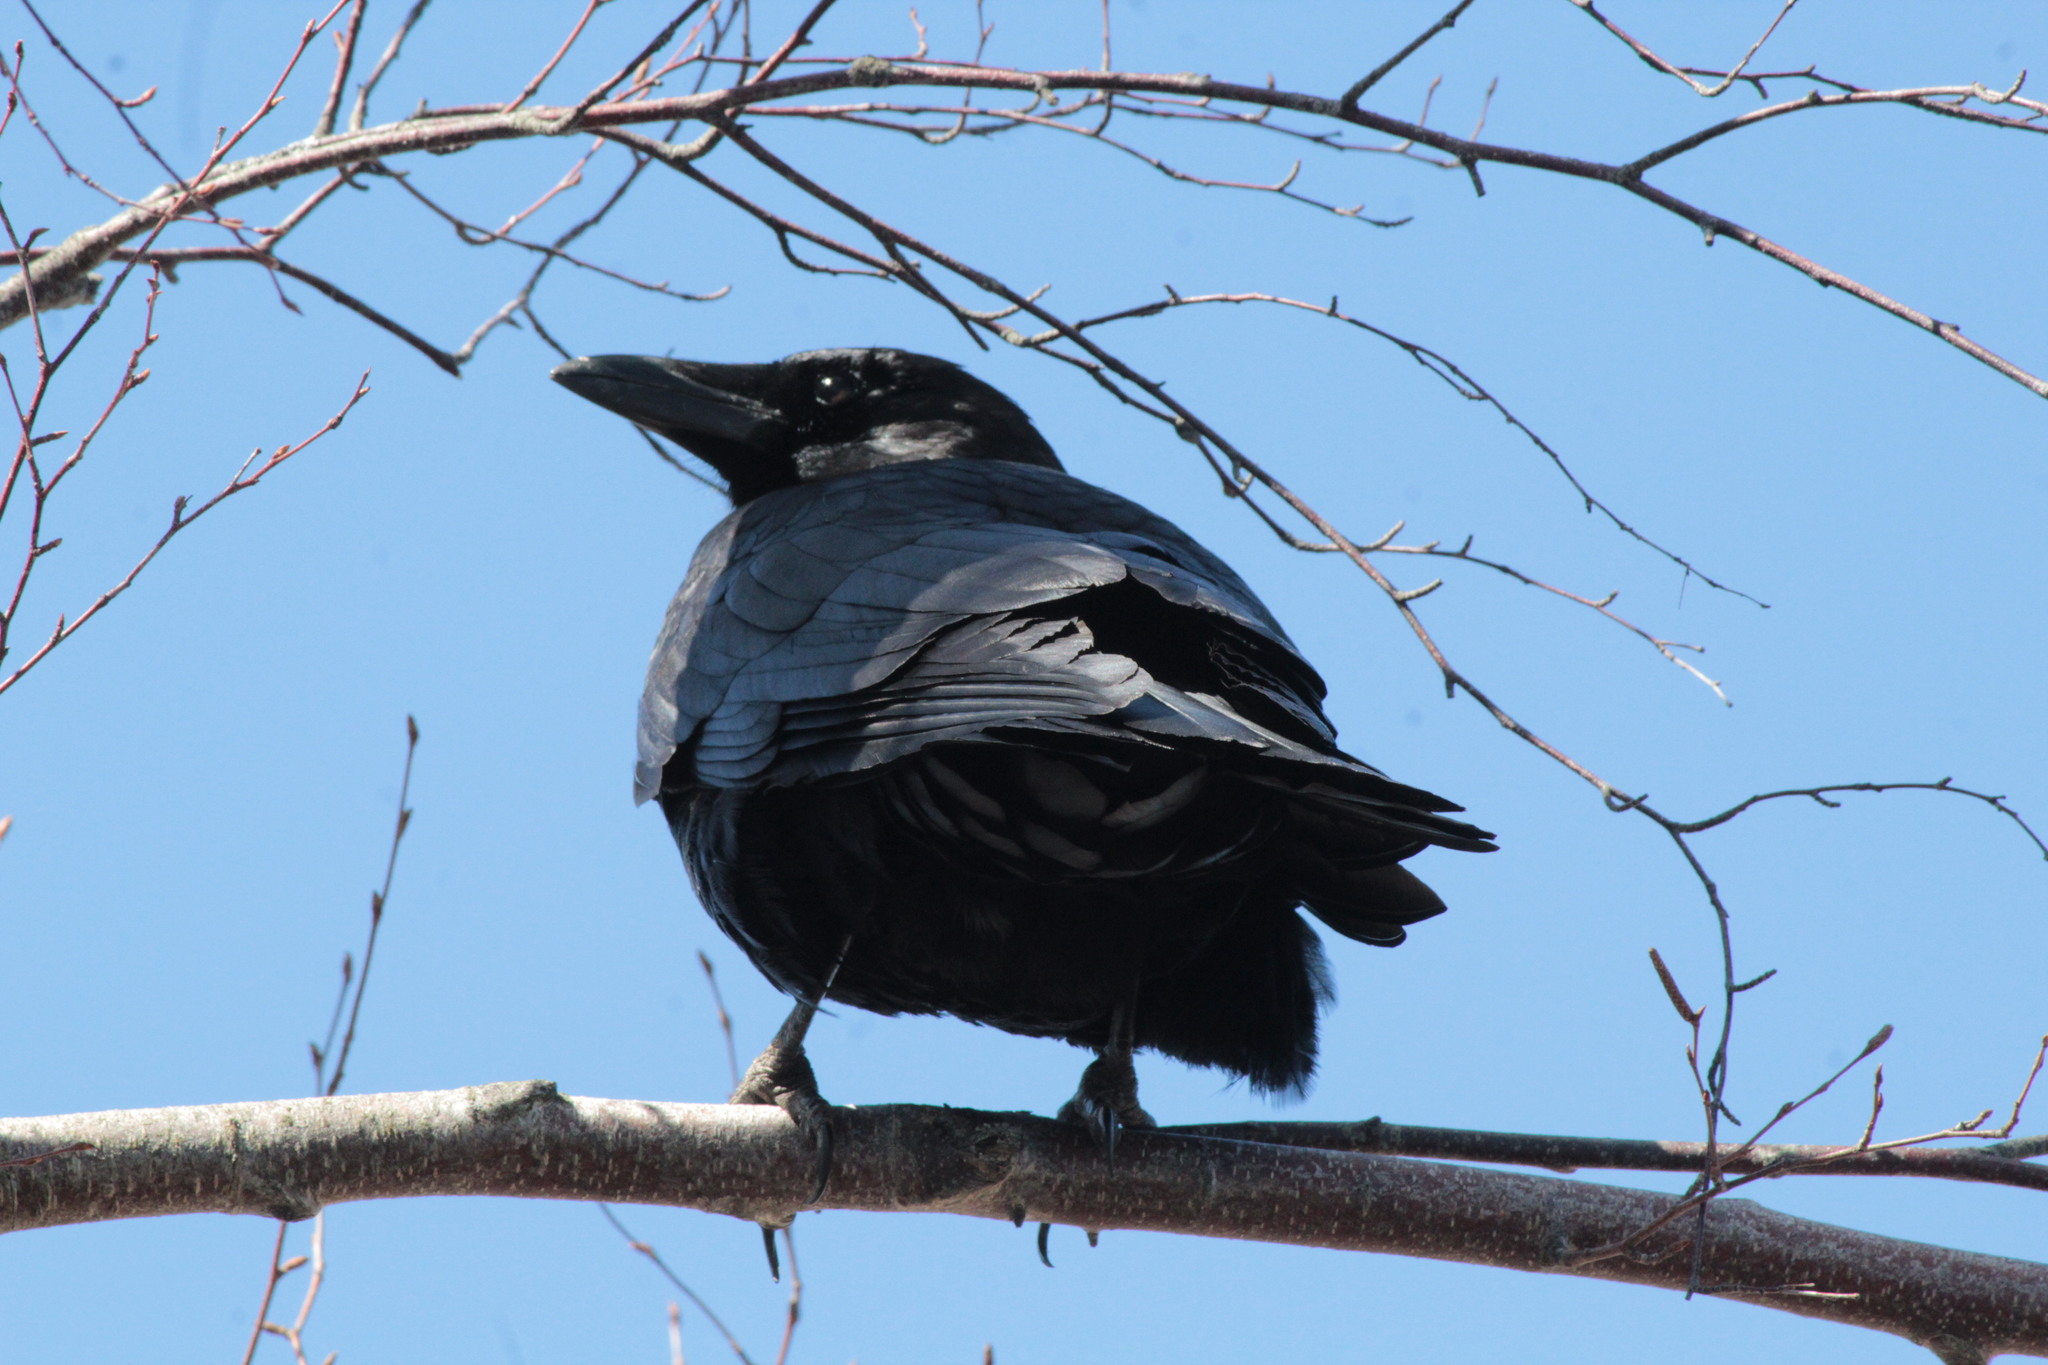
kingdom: Animalia
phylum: Chordata
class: Aves
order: Passeriformes
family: Corvidae
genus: Corvus
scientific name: Corvus brachyrhynchos
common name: American crow
